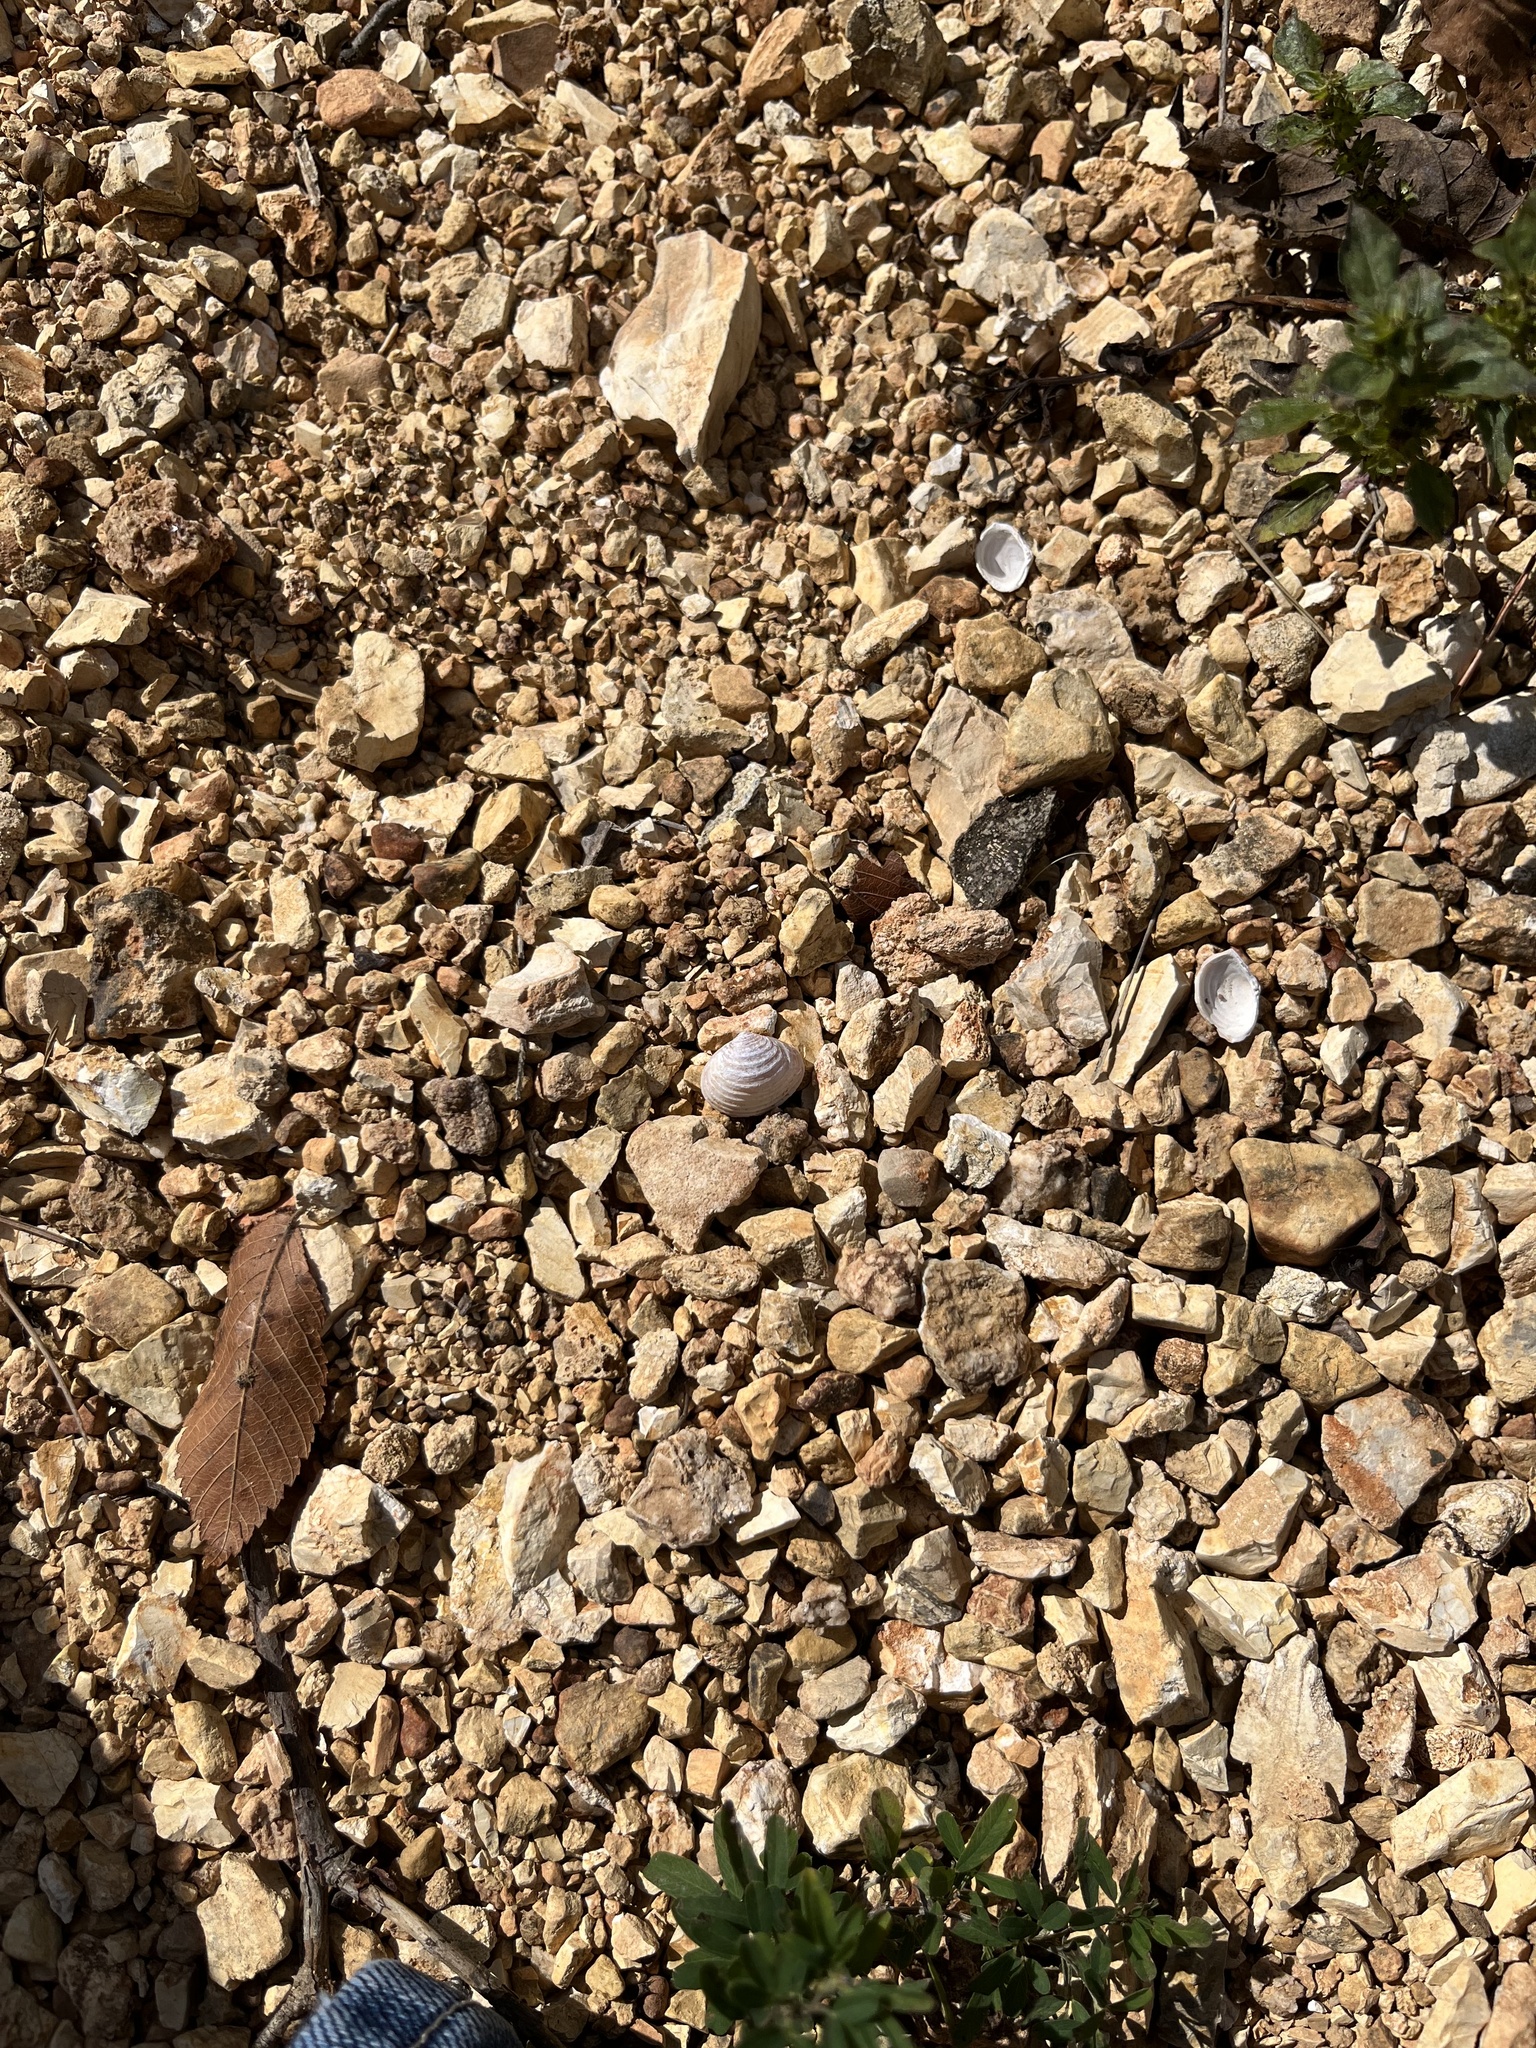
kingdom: Animalia
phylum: Mollusca
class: Bivalvia
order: Venerida
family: Cyrenidae
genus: Corbicula
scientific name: Corbicula fluminea
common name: Asian clam
